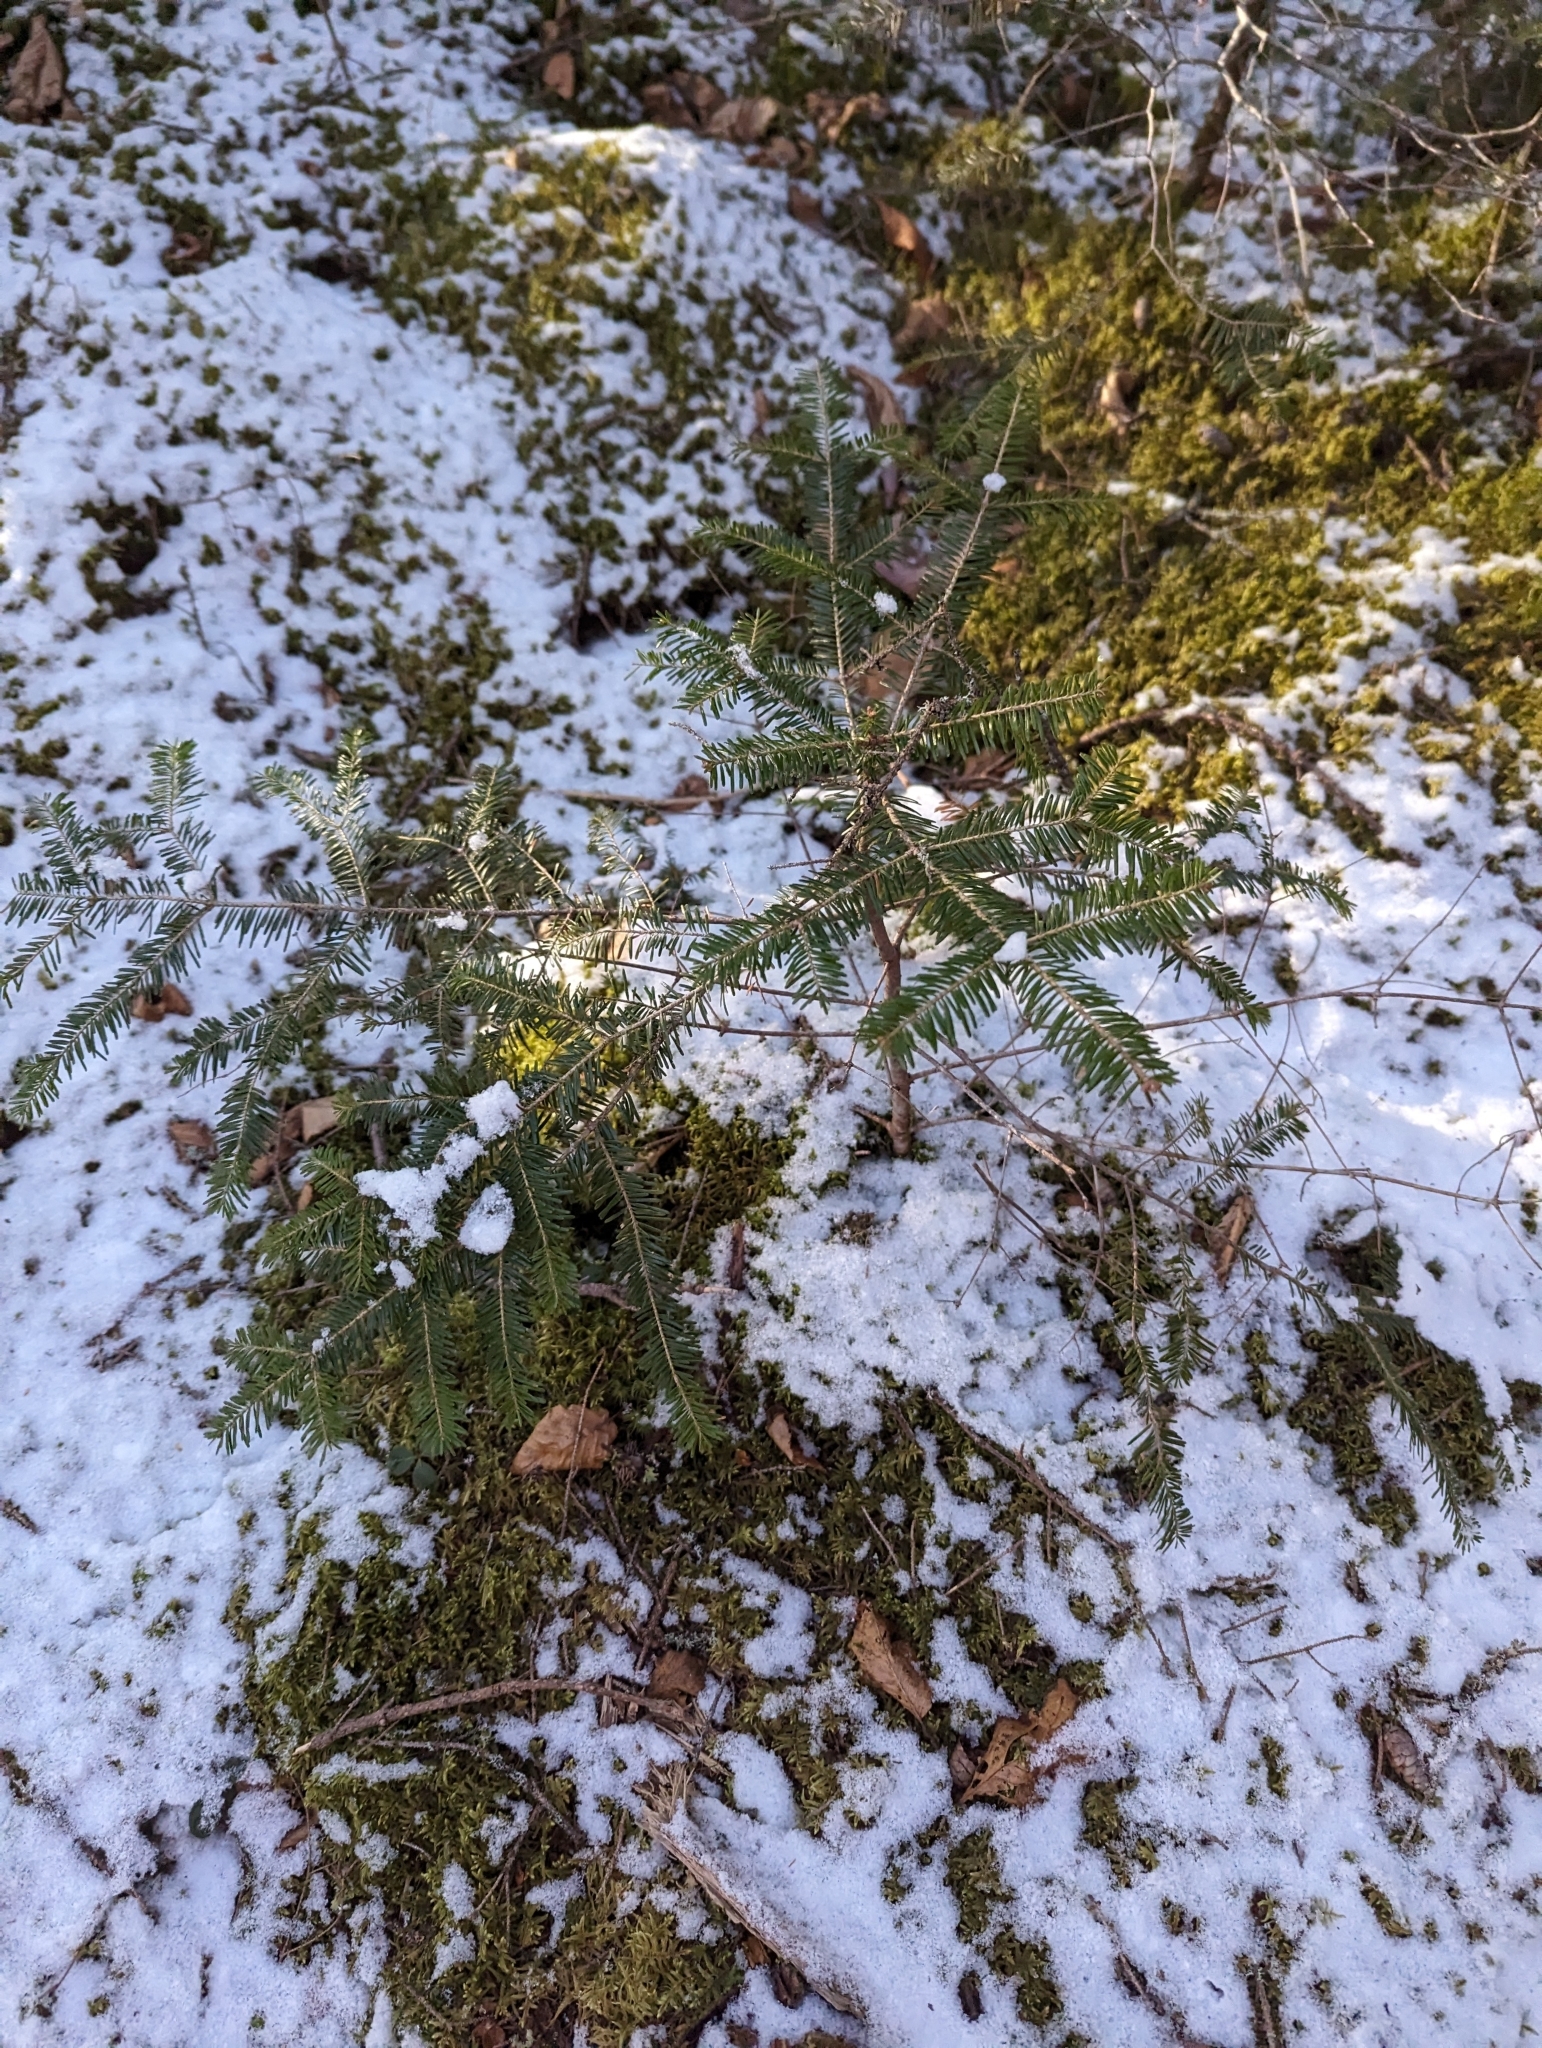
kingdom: Plantae
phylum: Tracheophyta
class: Pinopsida
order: Pinales
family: Pinaceae
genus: Abies
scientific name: Abies balsamea
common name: Balsam fir
